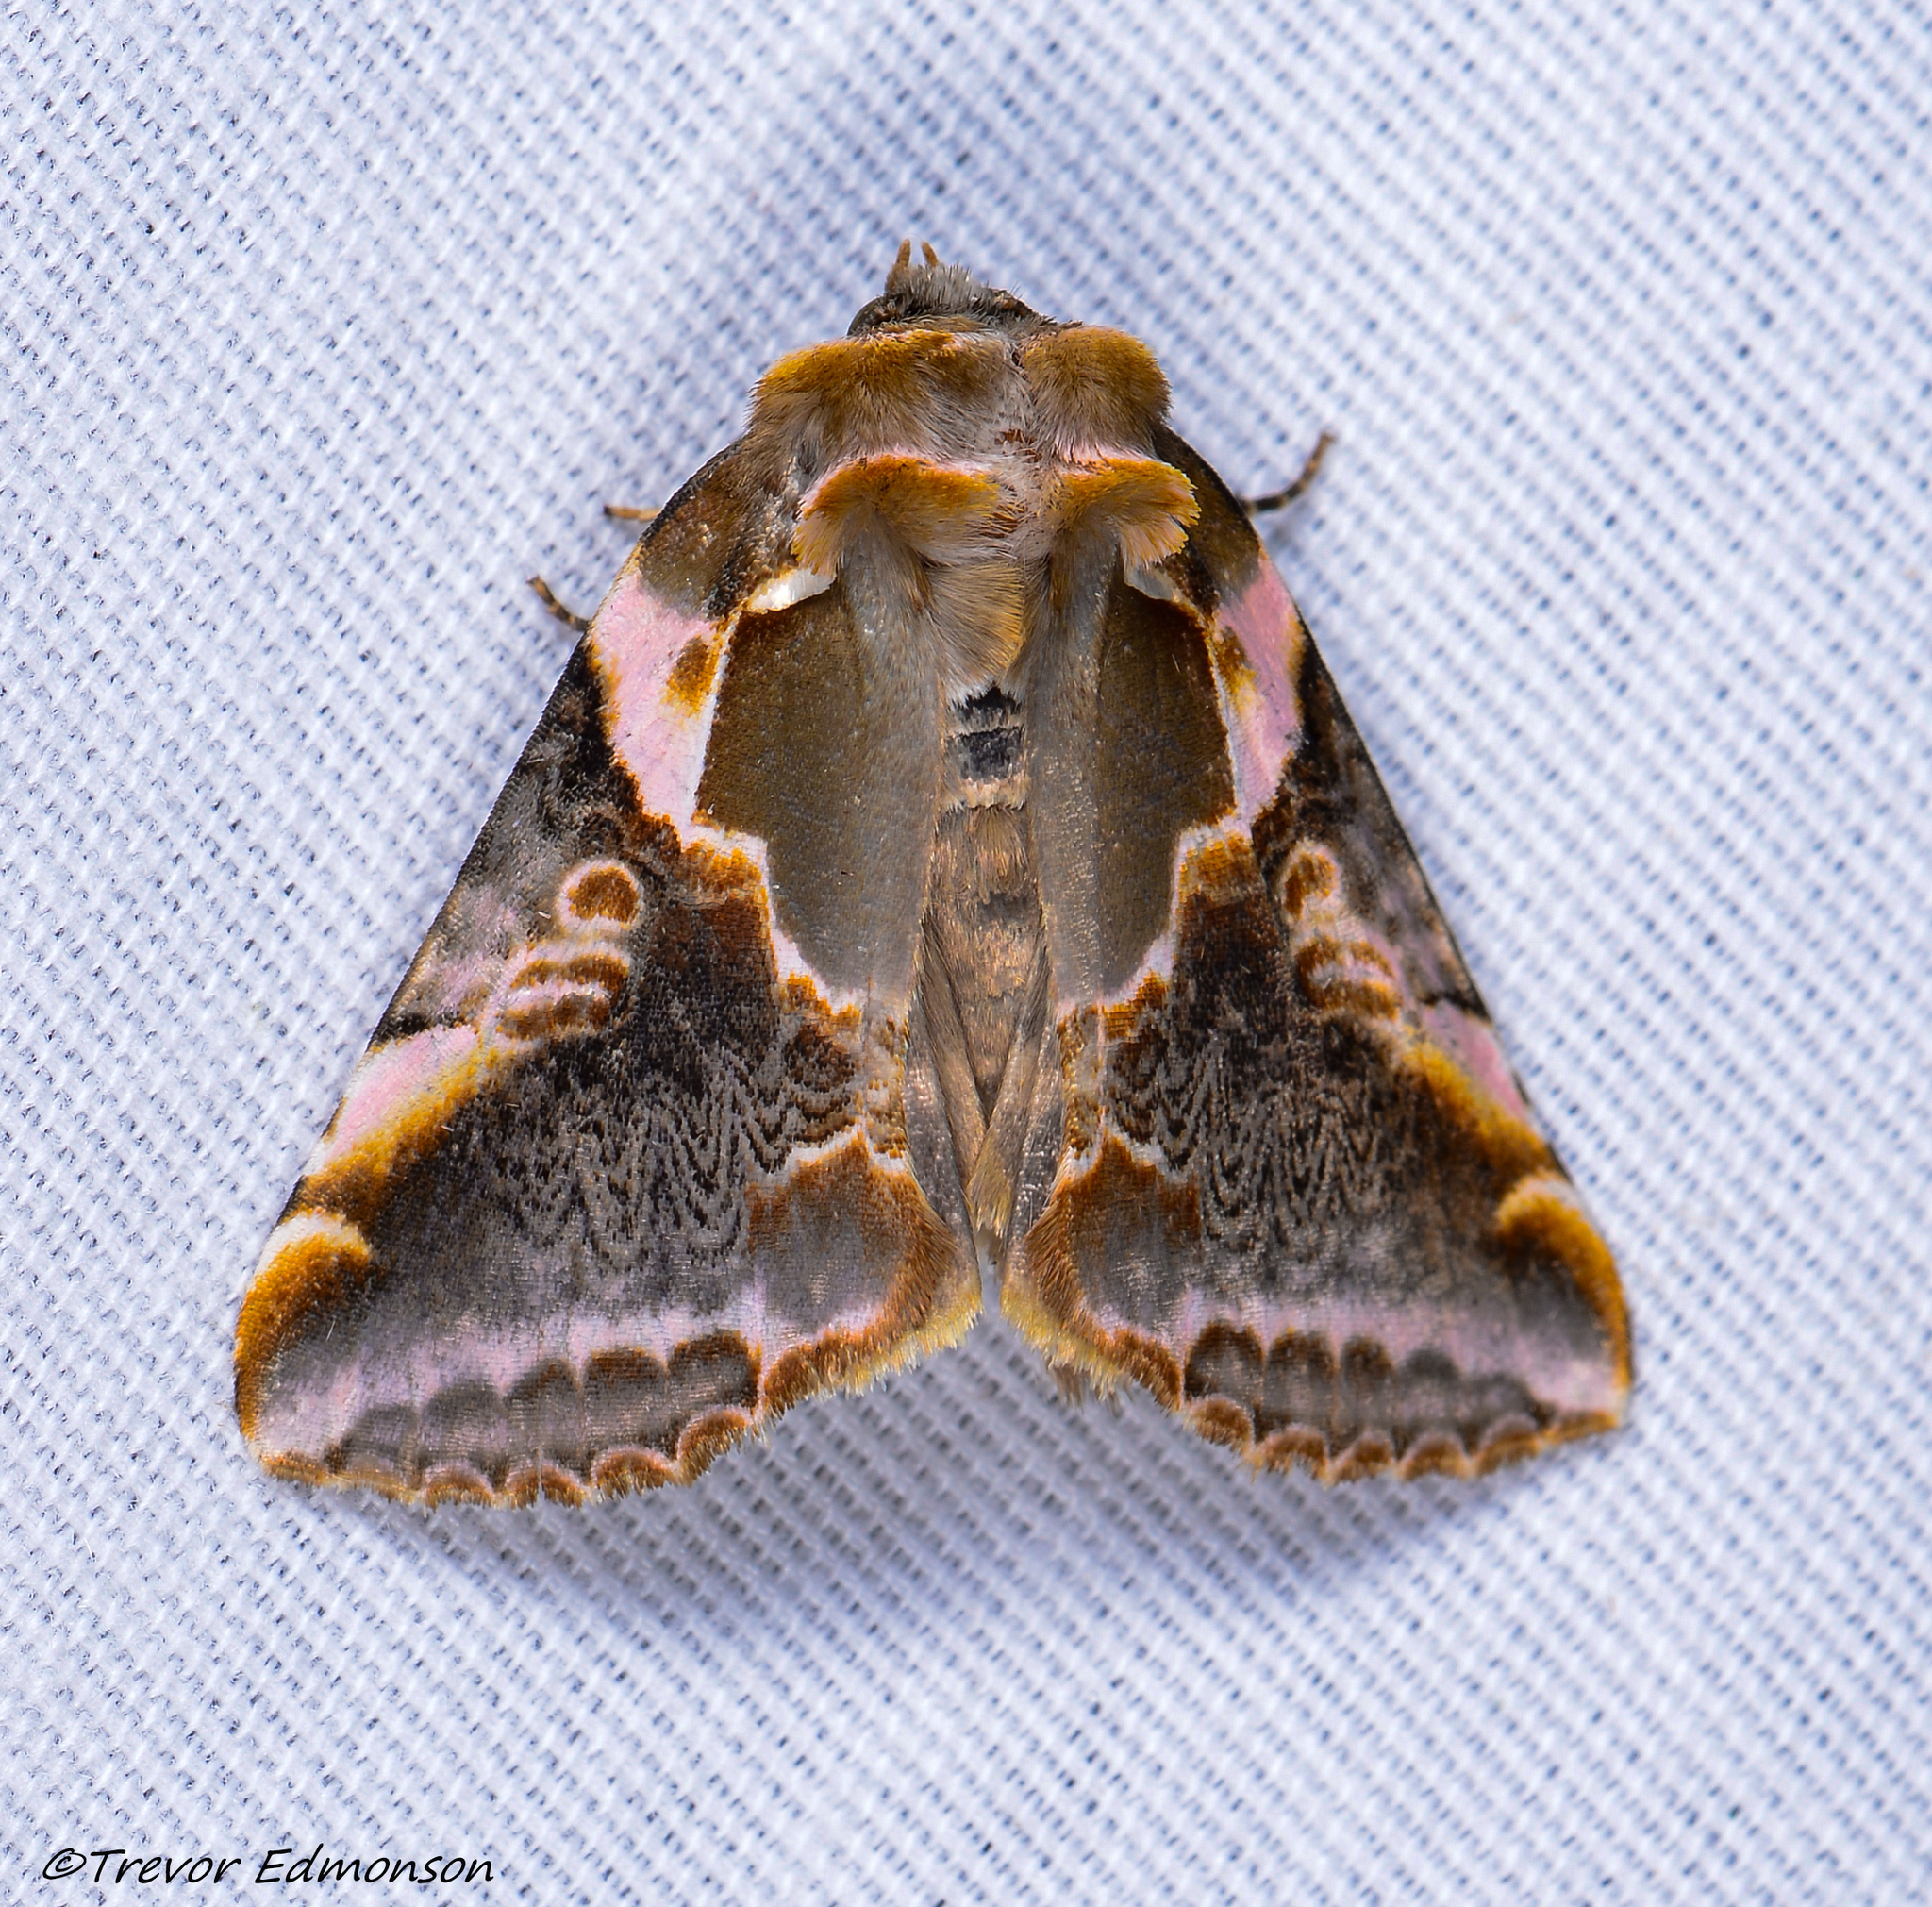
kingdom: Animalia
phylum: Arthropoda
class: Insecta
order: Lepidoptera
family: Drepanidae
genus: Habrosyne
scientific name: Habrosyne gloriosa
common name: Glorious habrosyne moth
